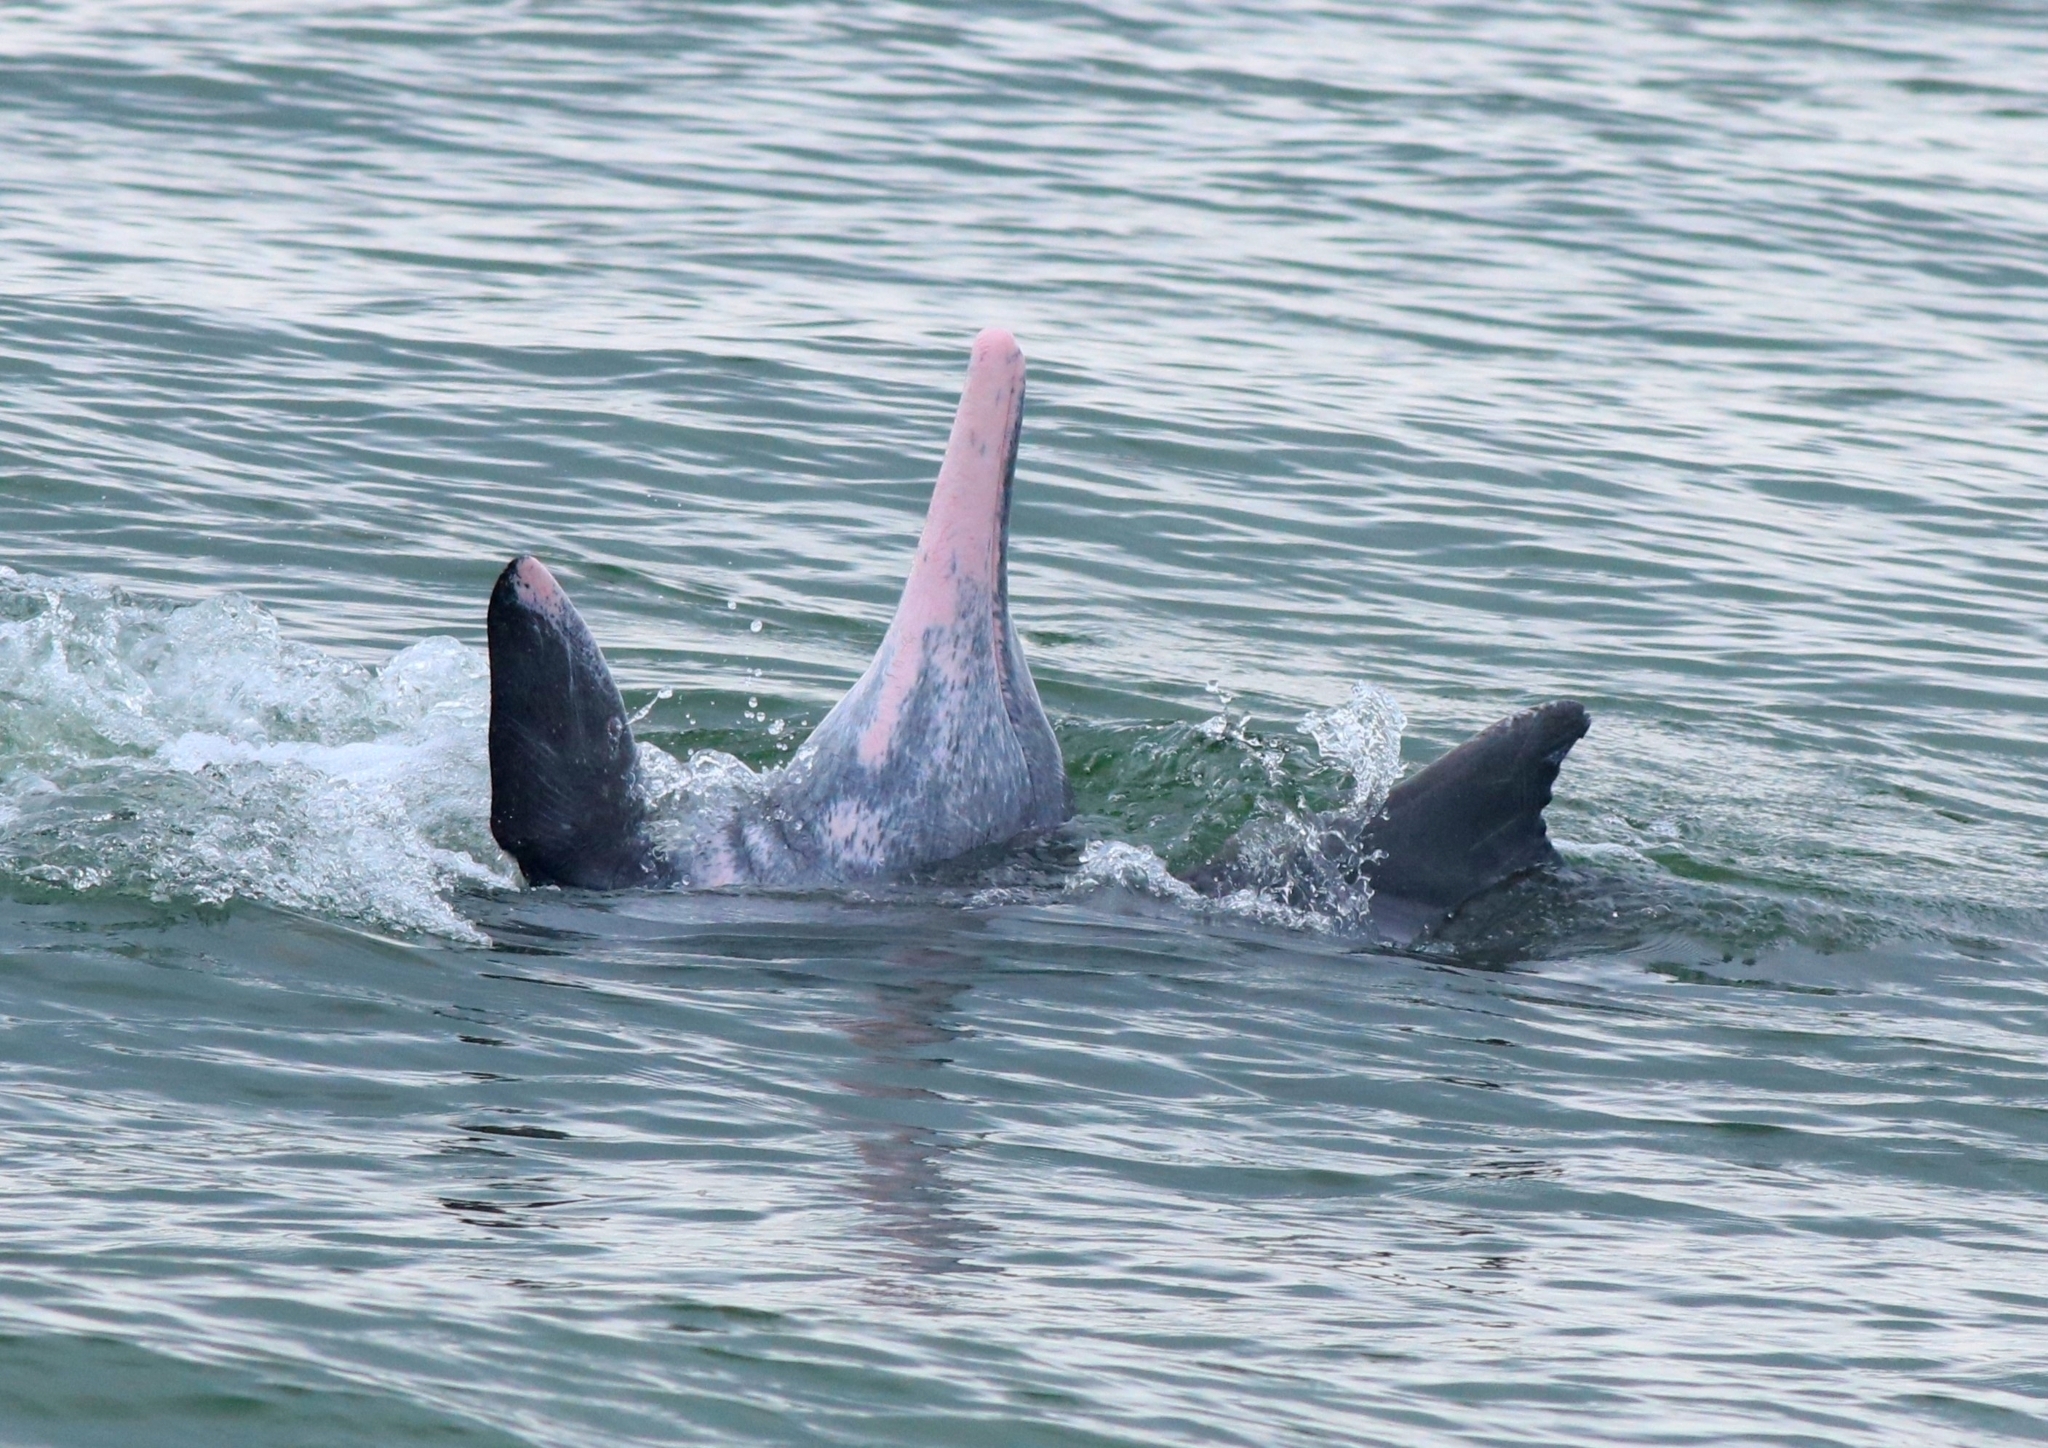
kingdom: Animalia
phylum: Chordata
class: Mammalia
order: Cetacea
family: Delphinidae
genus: Sousa
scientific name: Sousa plumbea
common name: Indian ocean humpback dolphin
